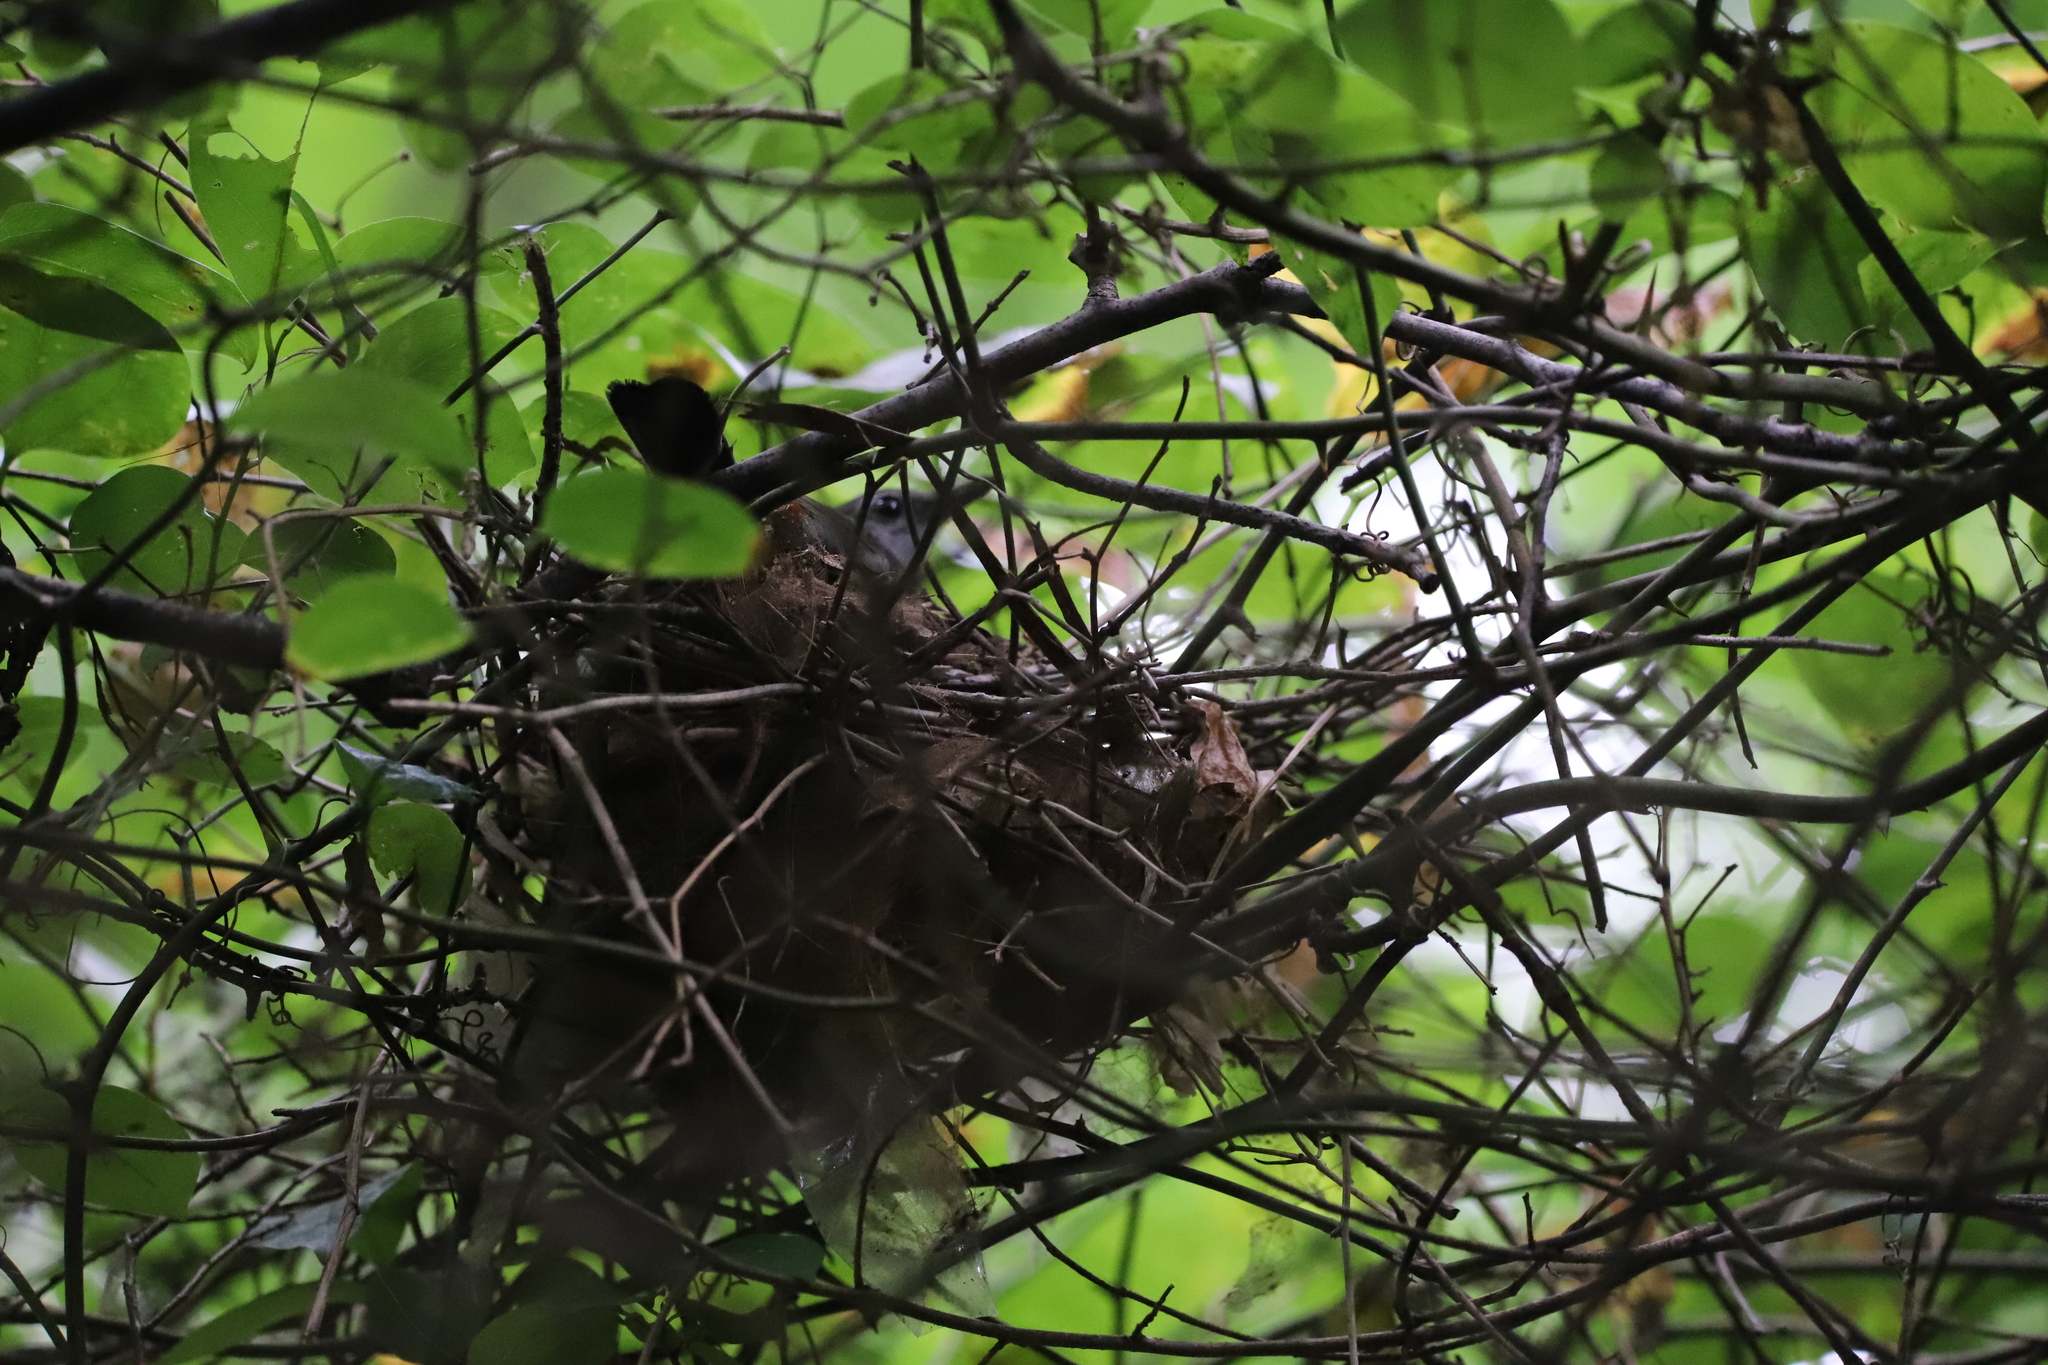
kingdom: Animalia
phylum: Chordata
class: Aves
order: Passeriformes
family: Mimidae
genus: Dumetella
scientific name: Dumetella carolinensis
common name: Gray catbird
